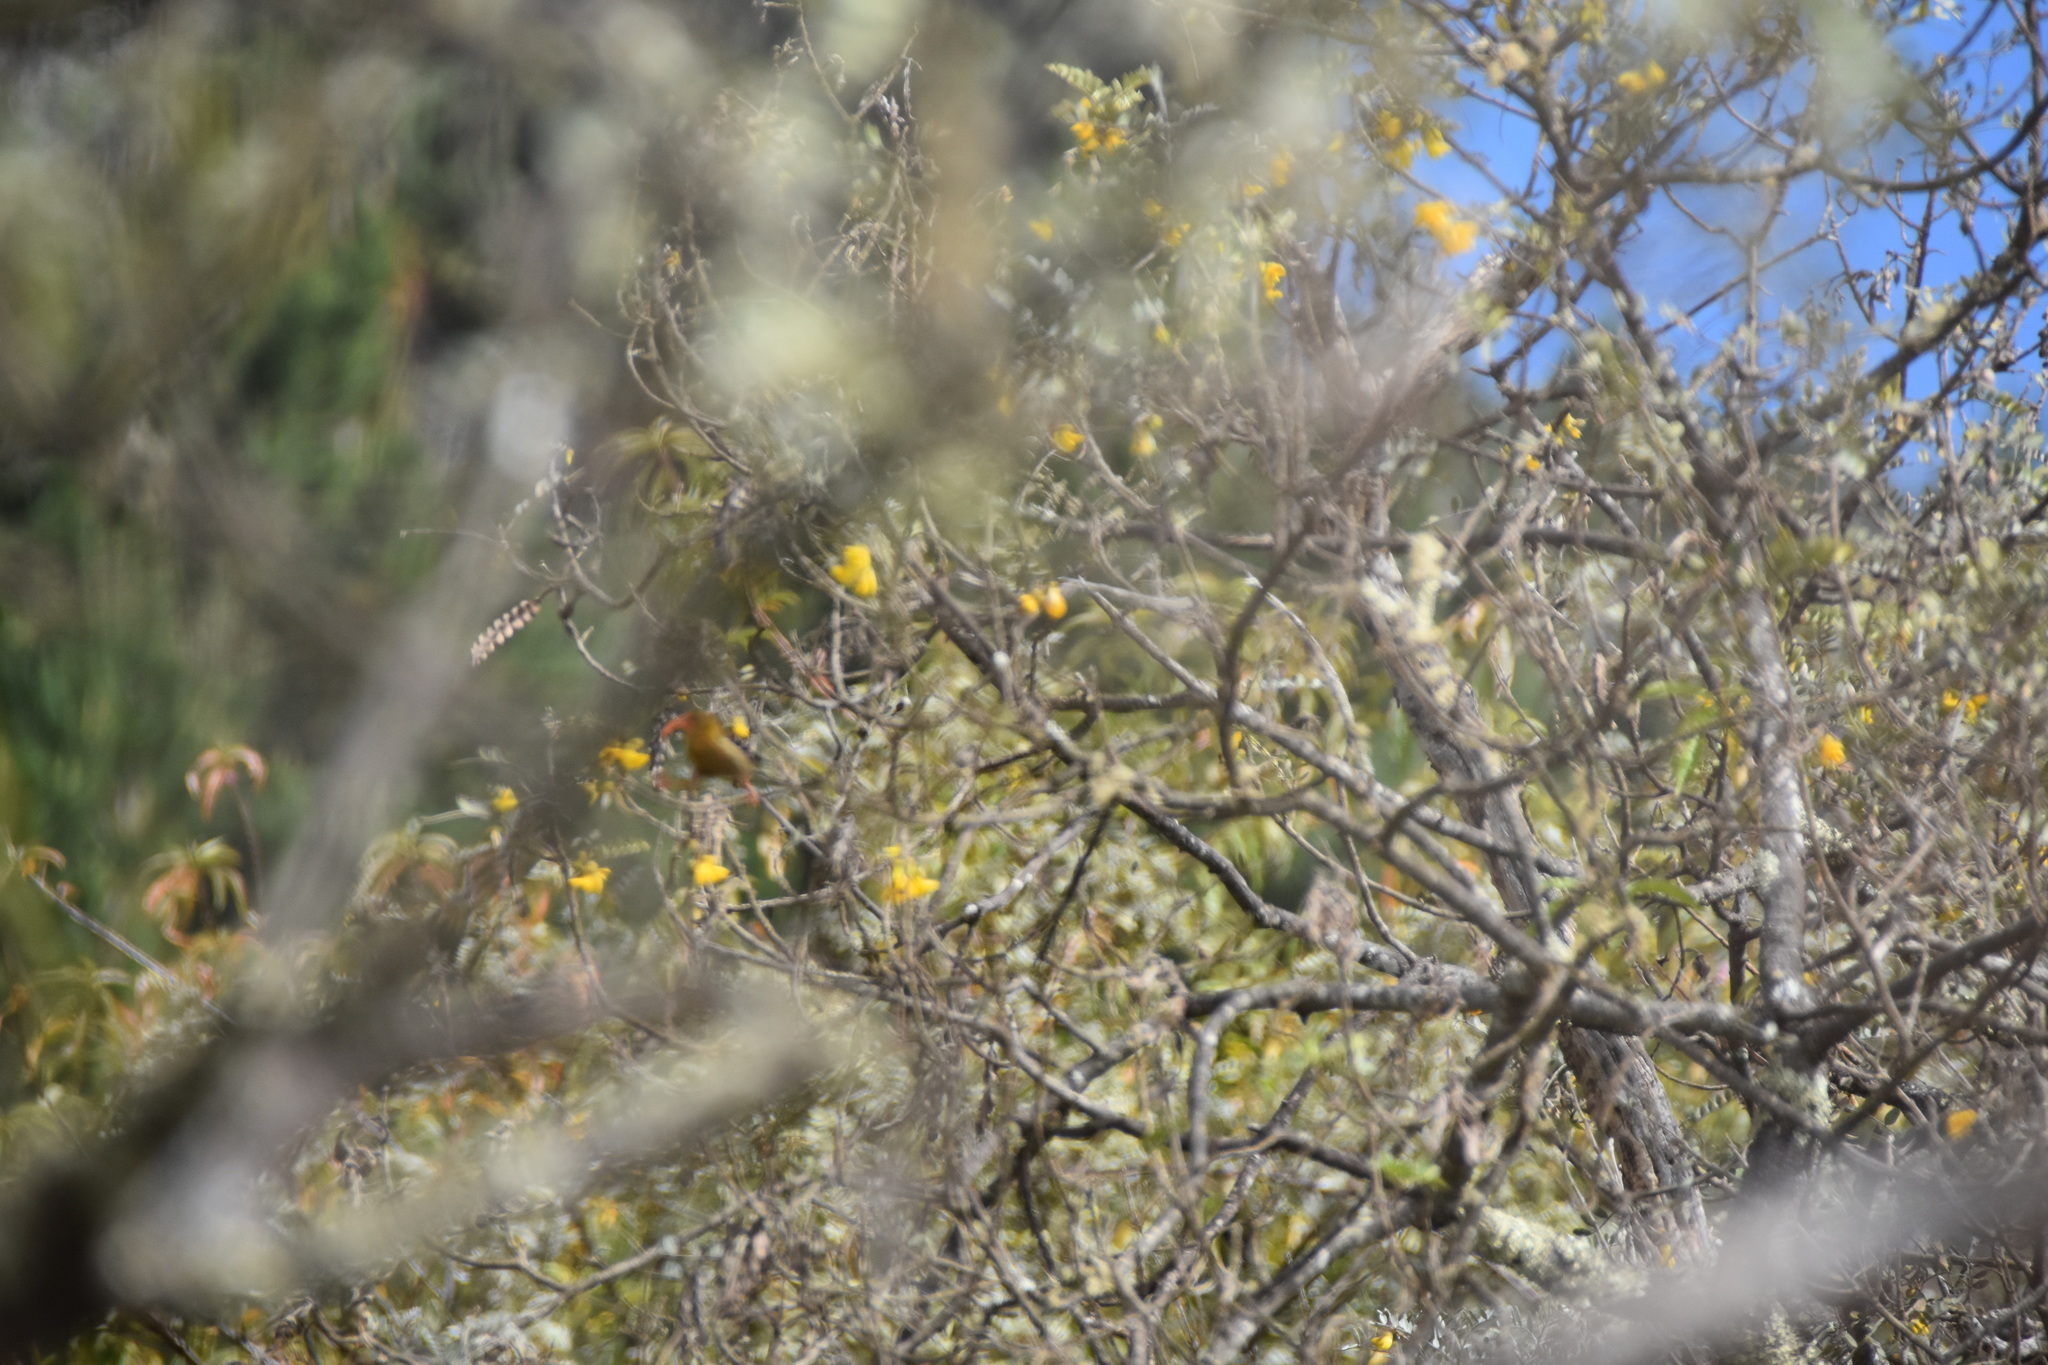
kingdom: Animalia
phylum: Chordata
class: Aves
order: Passeriformes
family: Fringillidae
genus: Vestiaria
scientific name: Vestiaria coccinea
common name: Iiwi
